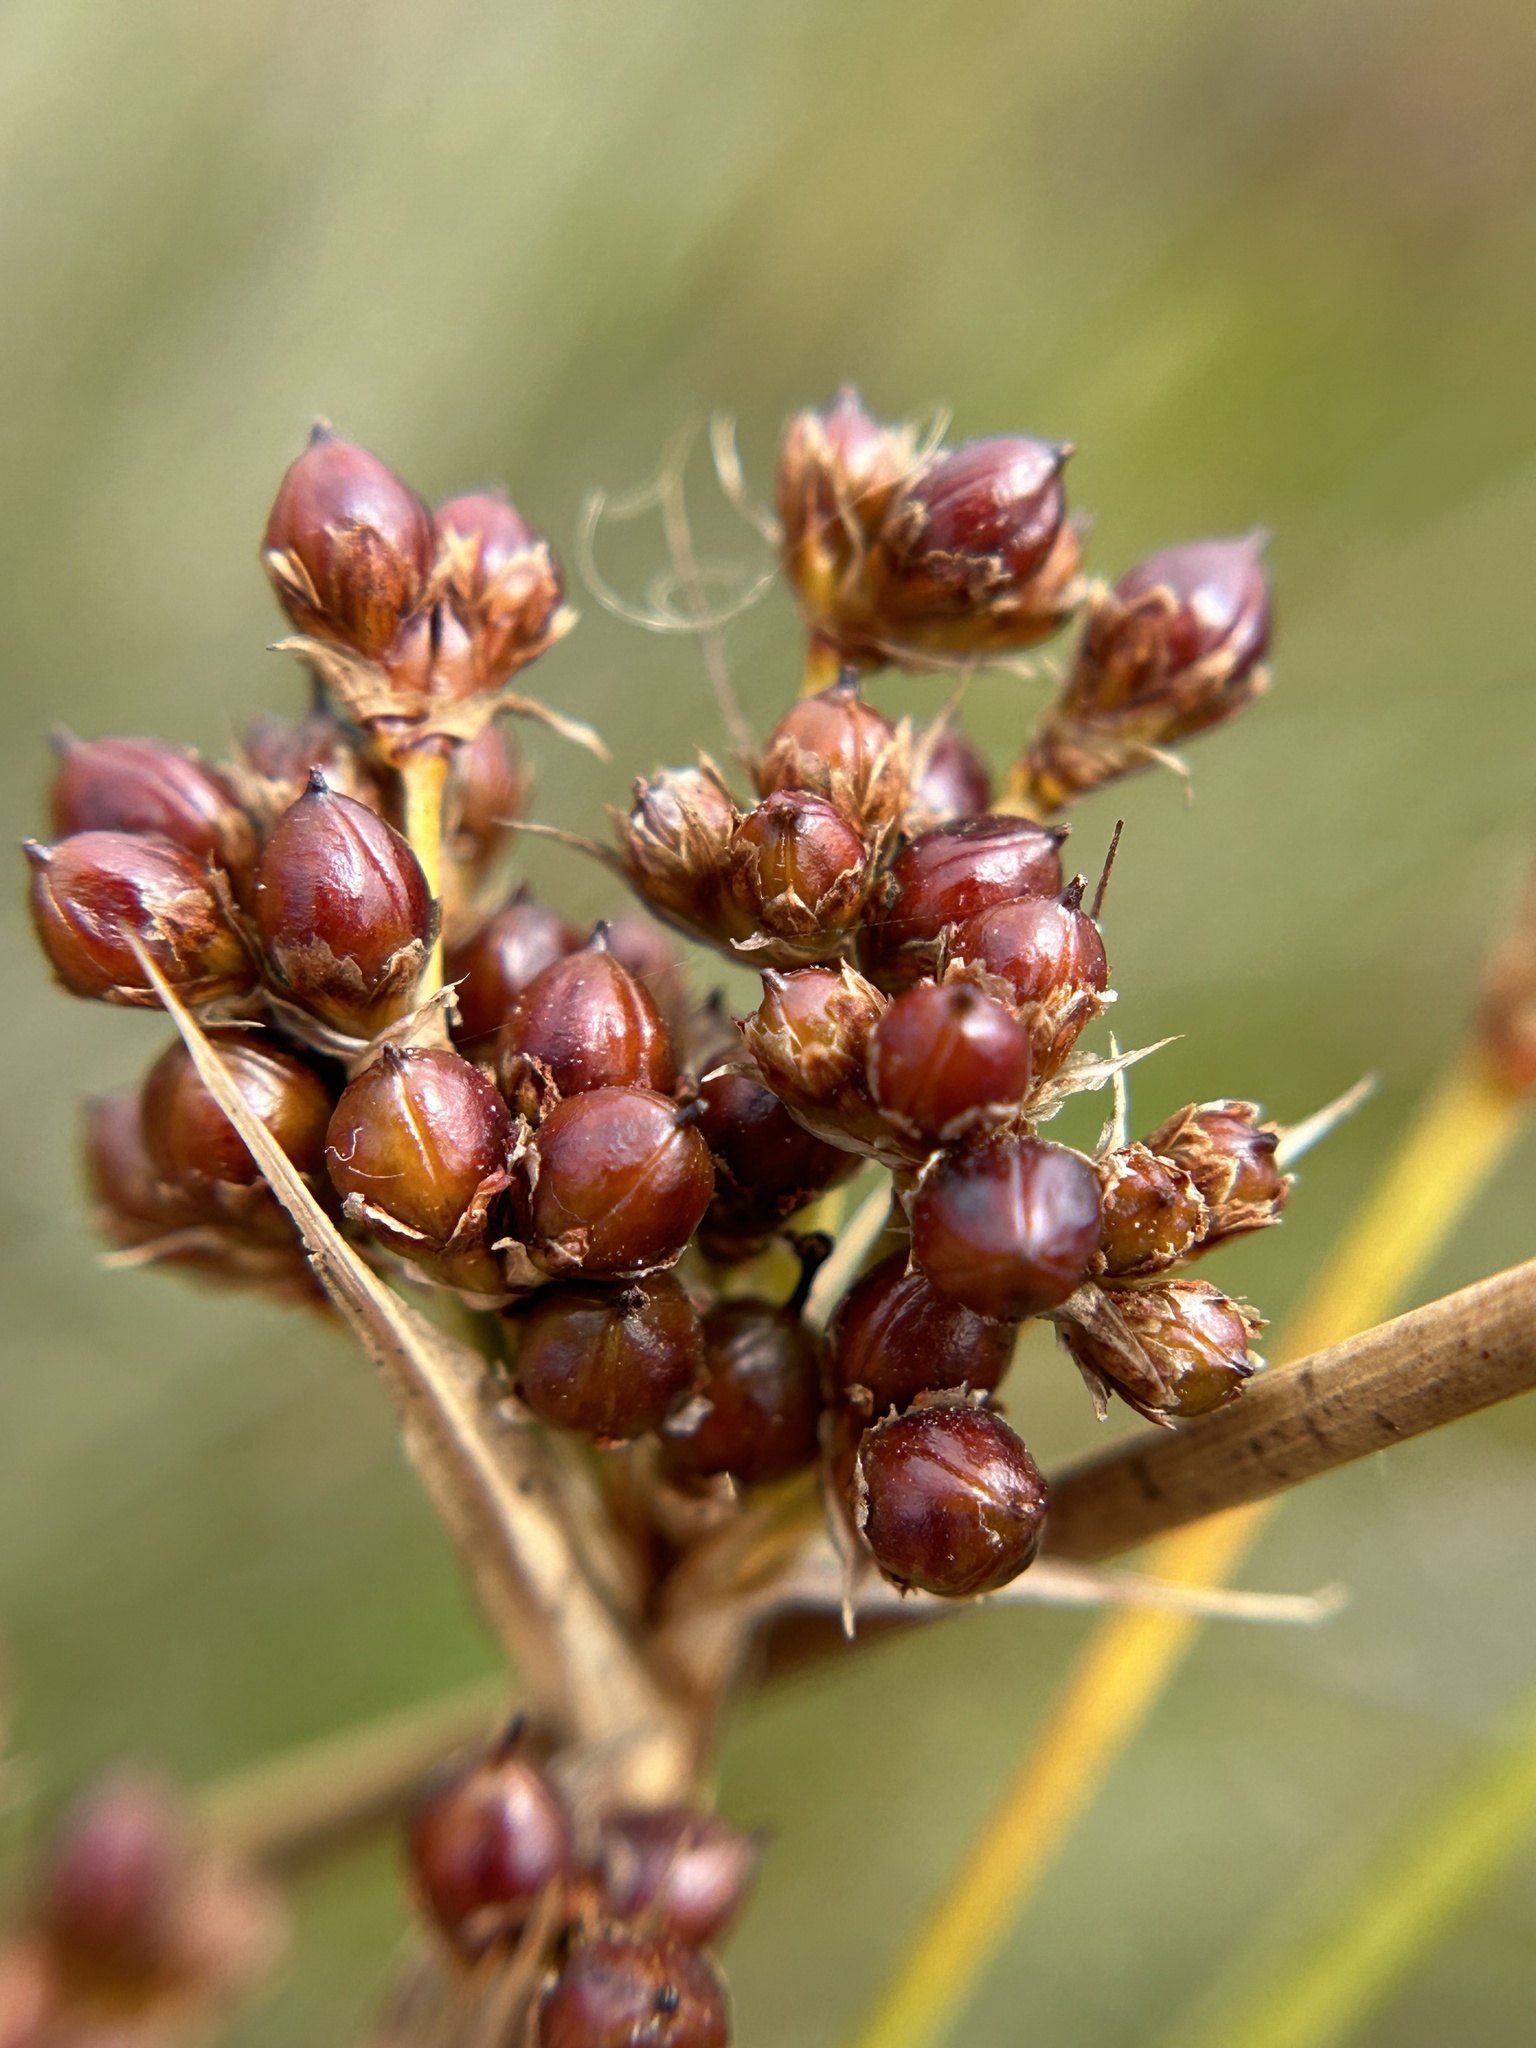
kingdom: Plantae
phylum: Tracheophyta
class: Liliopsida
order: Poales
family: Juncaceae
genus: Juncus
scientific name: Juncus acutus
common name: Sharp rush
